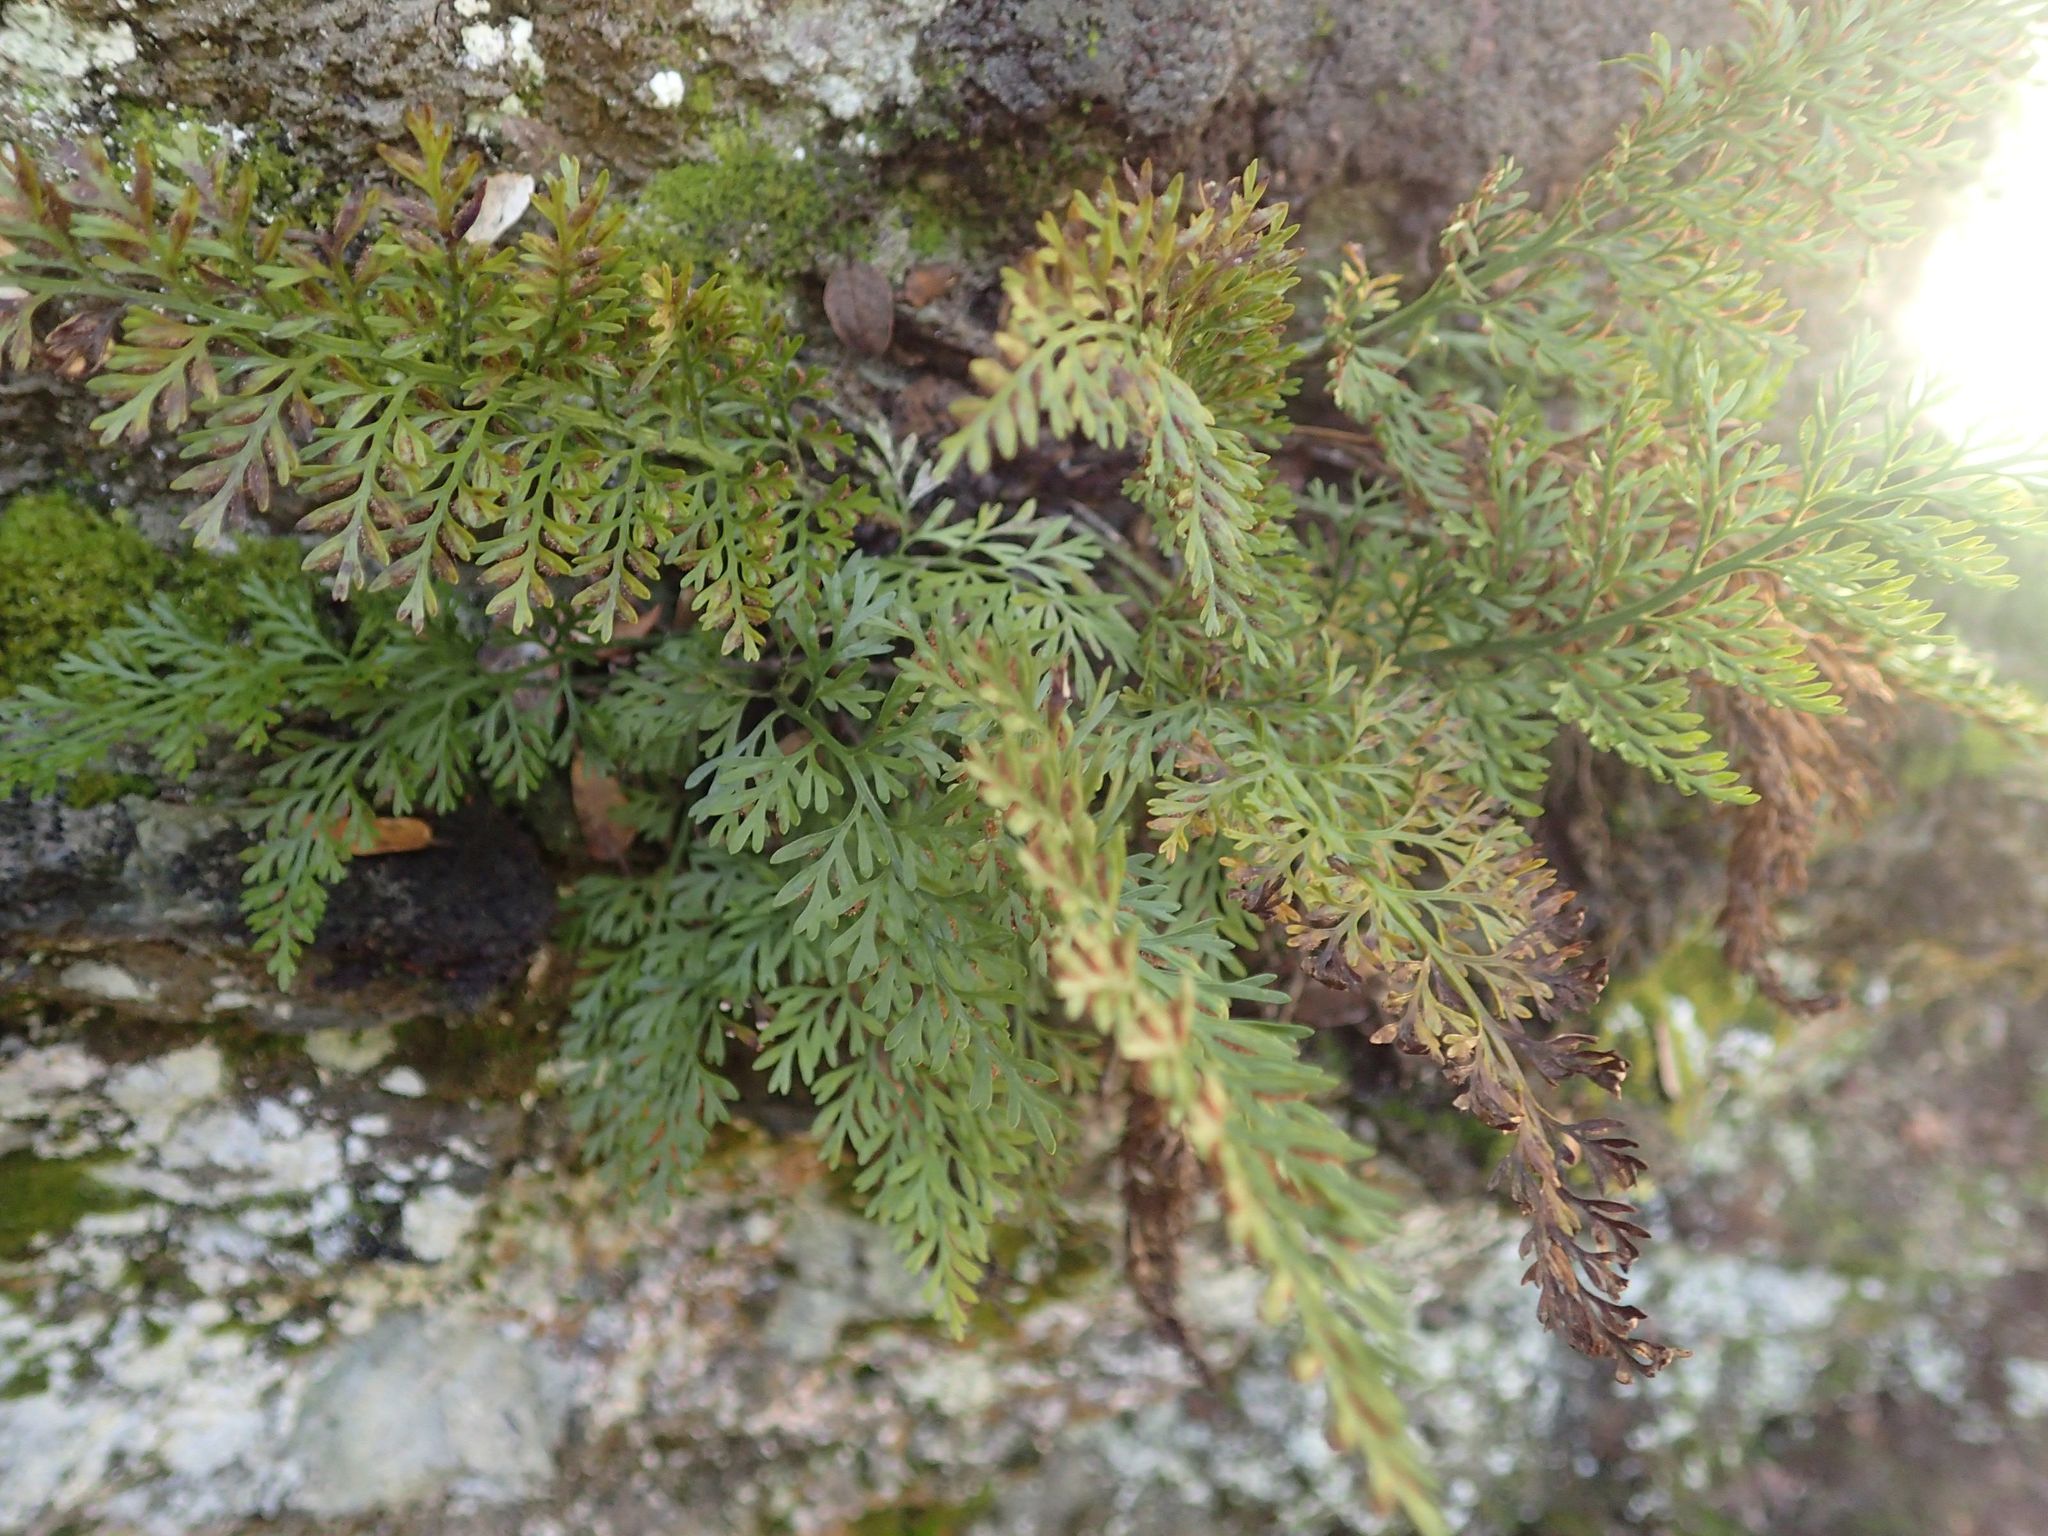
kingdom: Plantae
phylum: Tracheophyta
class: Polypodiopsida
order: Polypodiales
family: Aspleniaceae
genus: Asplenium
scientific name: Asplenium richardii
